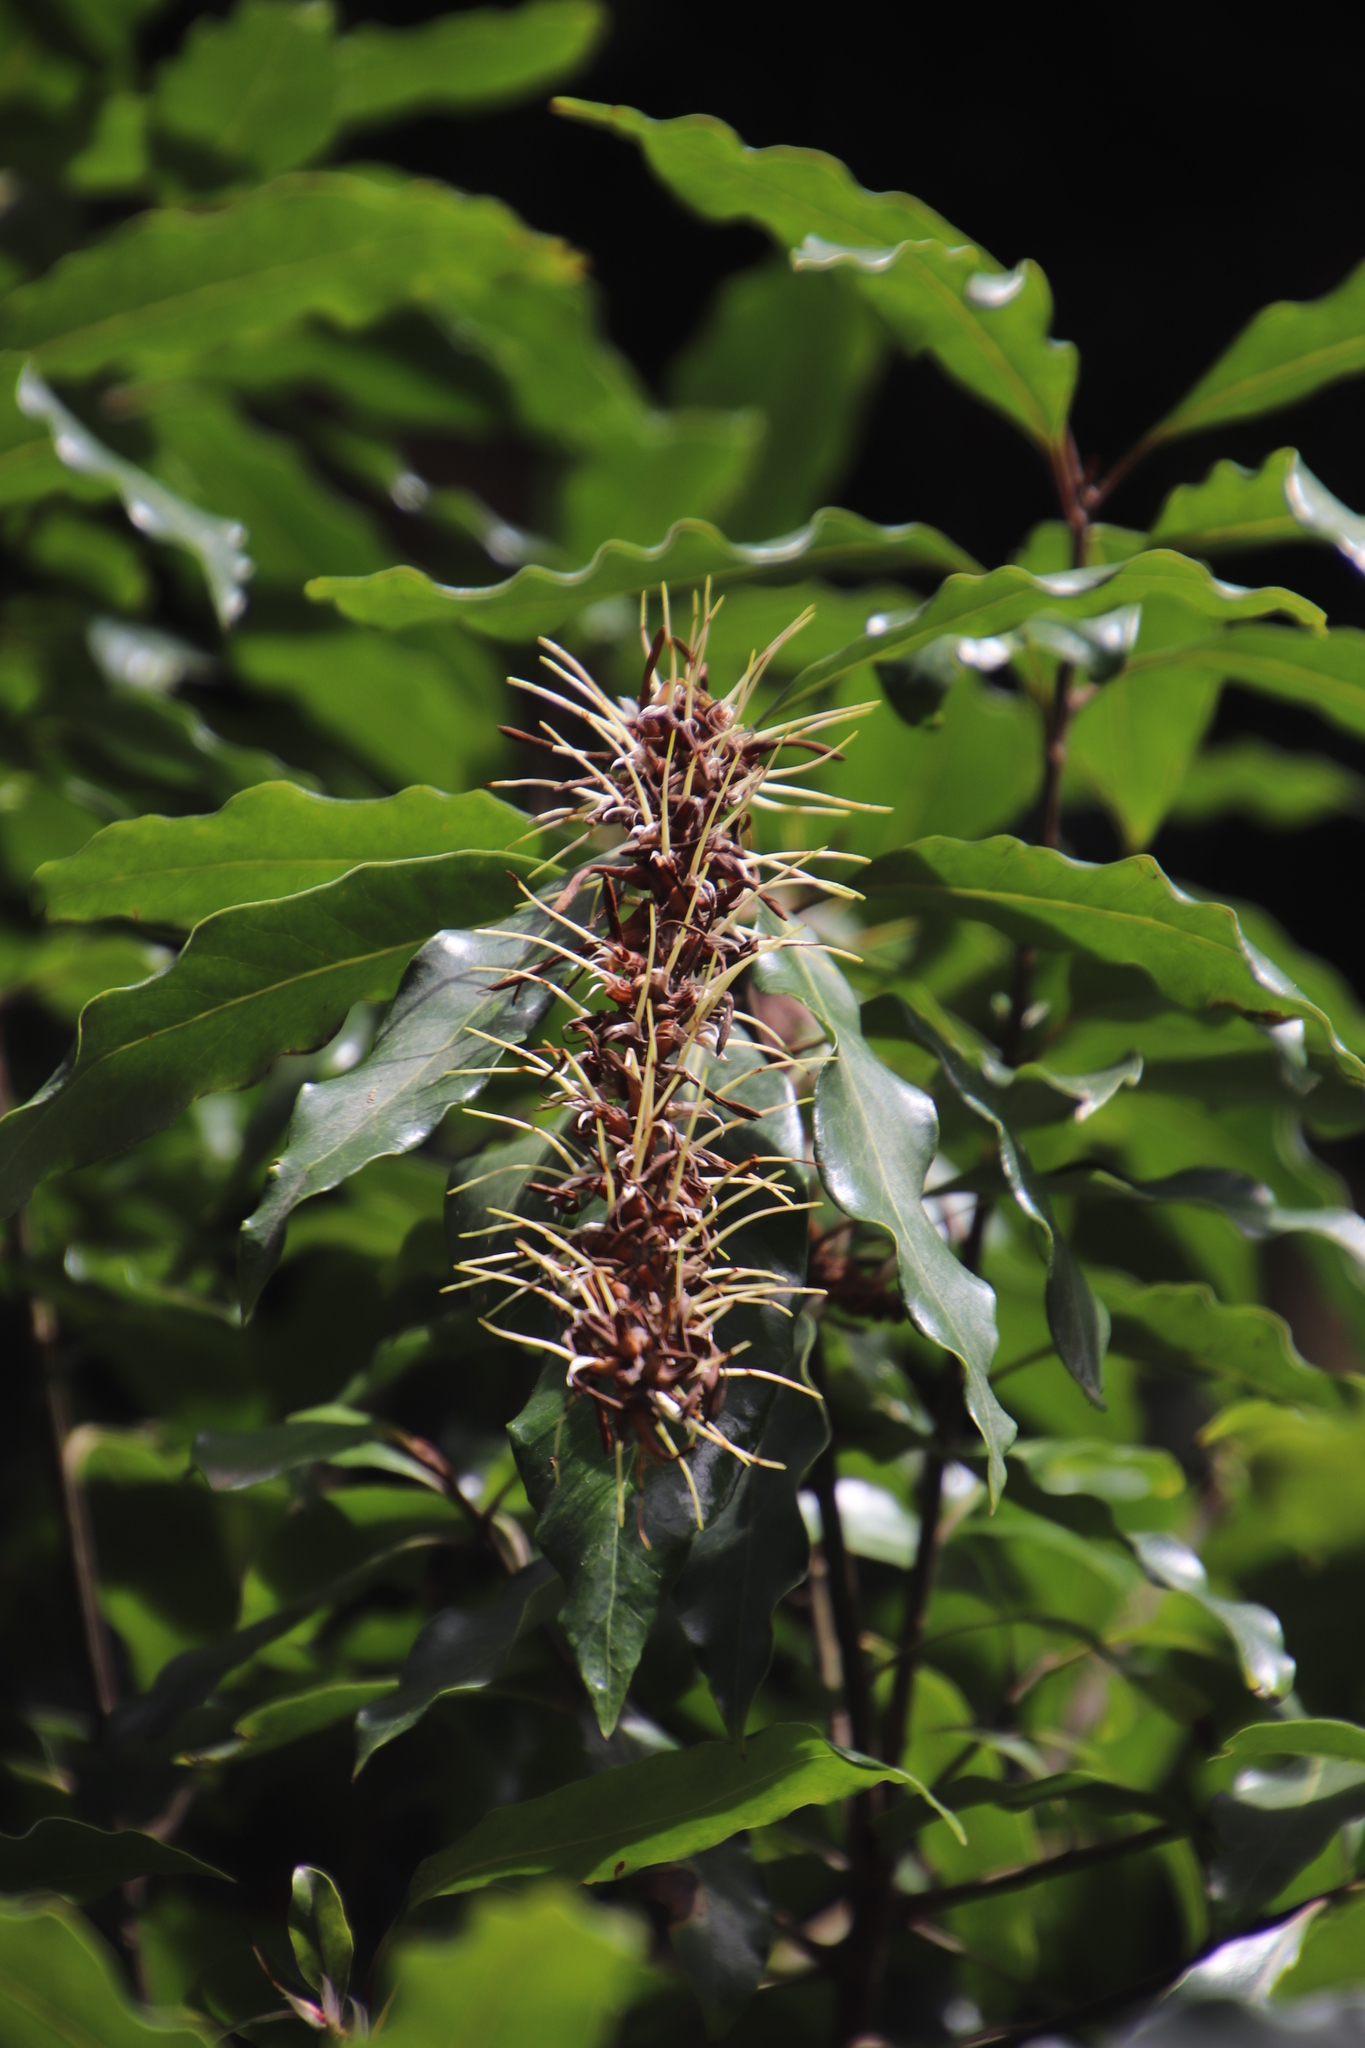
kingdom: Plantae
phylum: Tracheophyta
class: Magnoliopsida
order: Proteales
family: Proteaceae
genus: Faurea
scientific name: Faurea macnaughtonii
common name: Egossa beech
